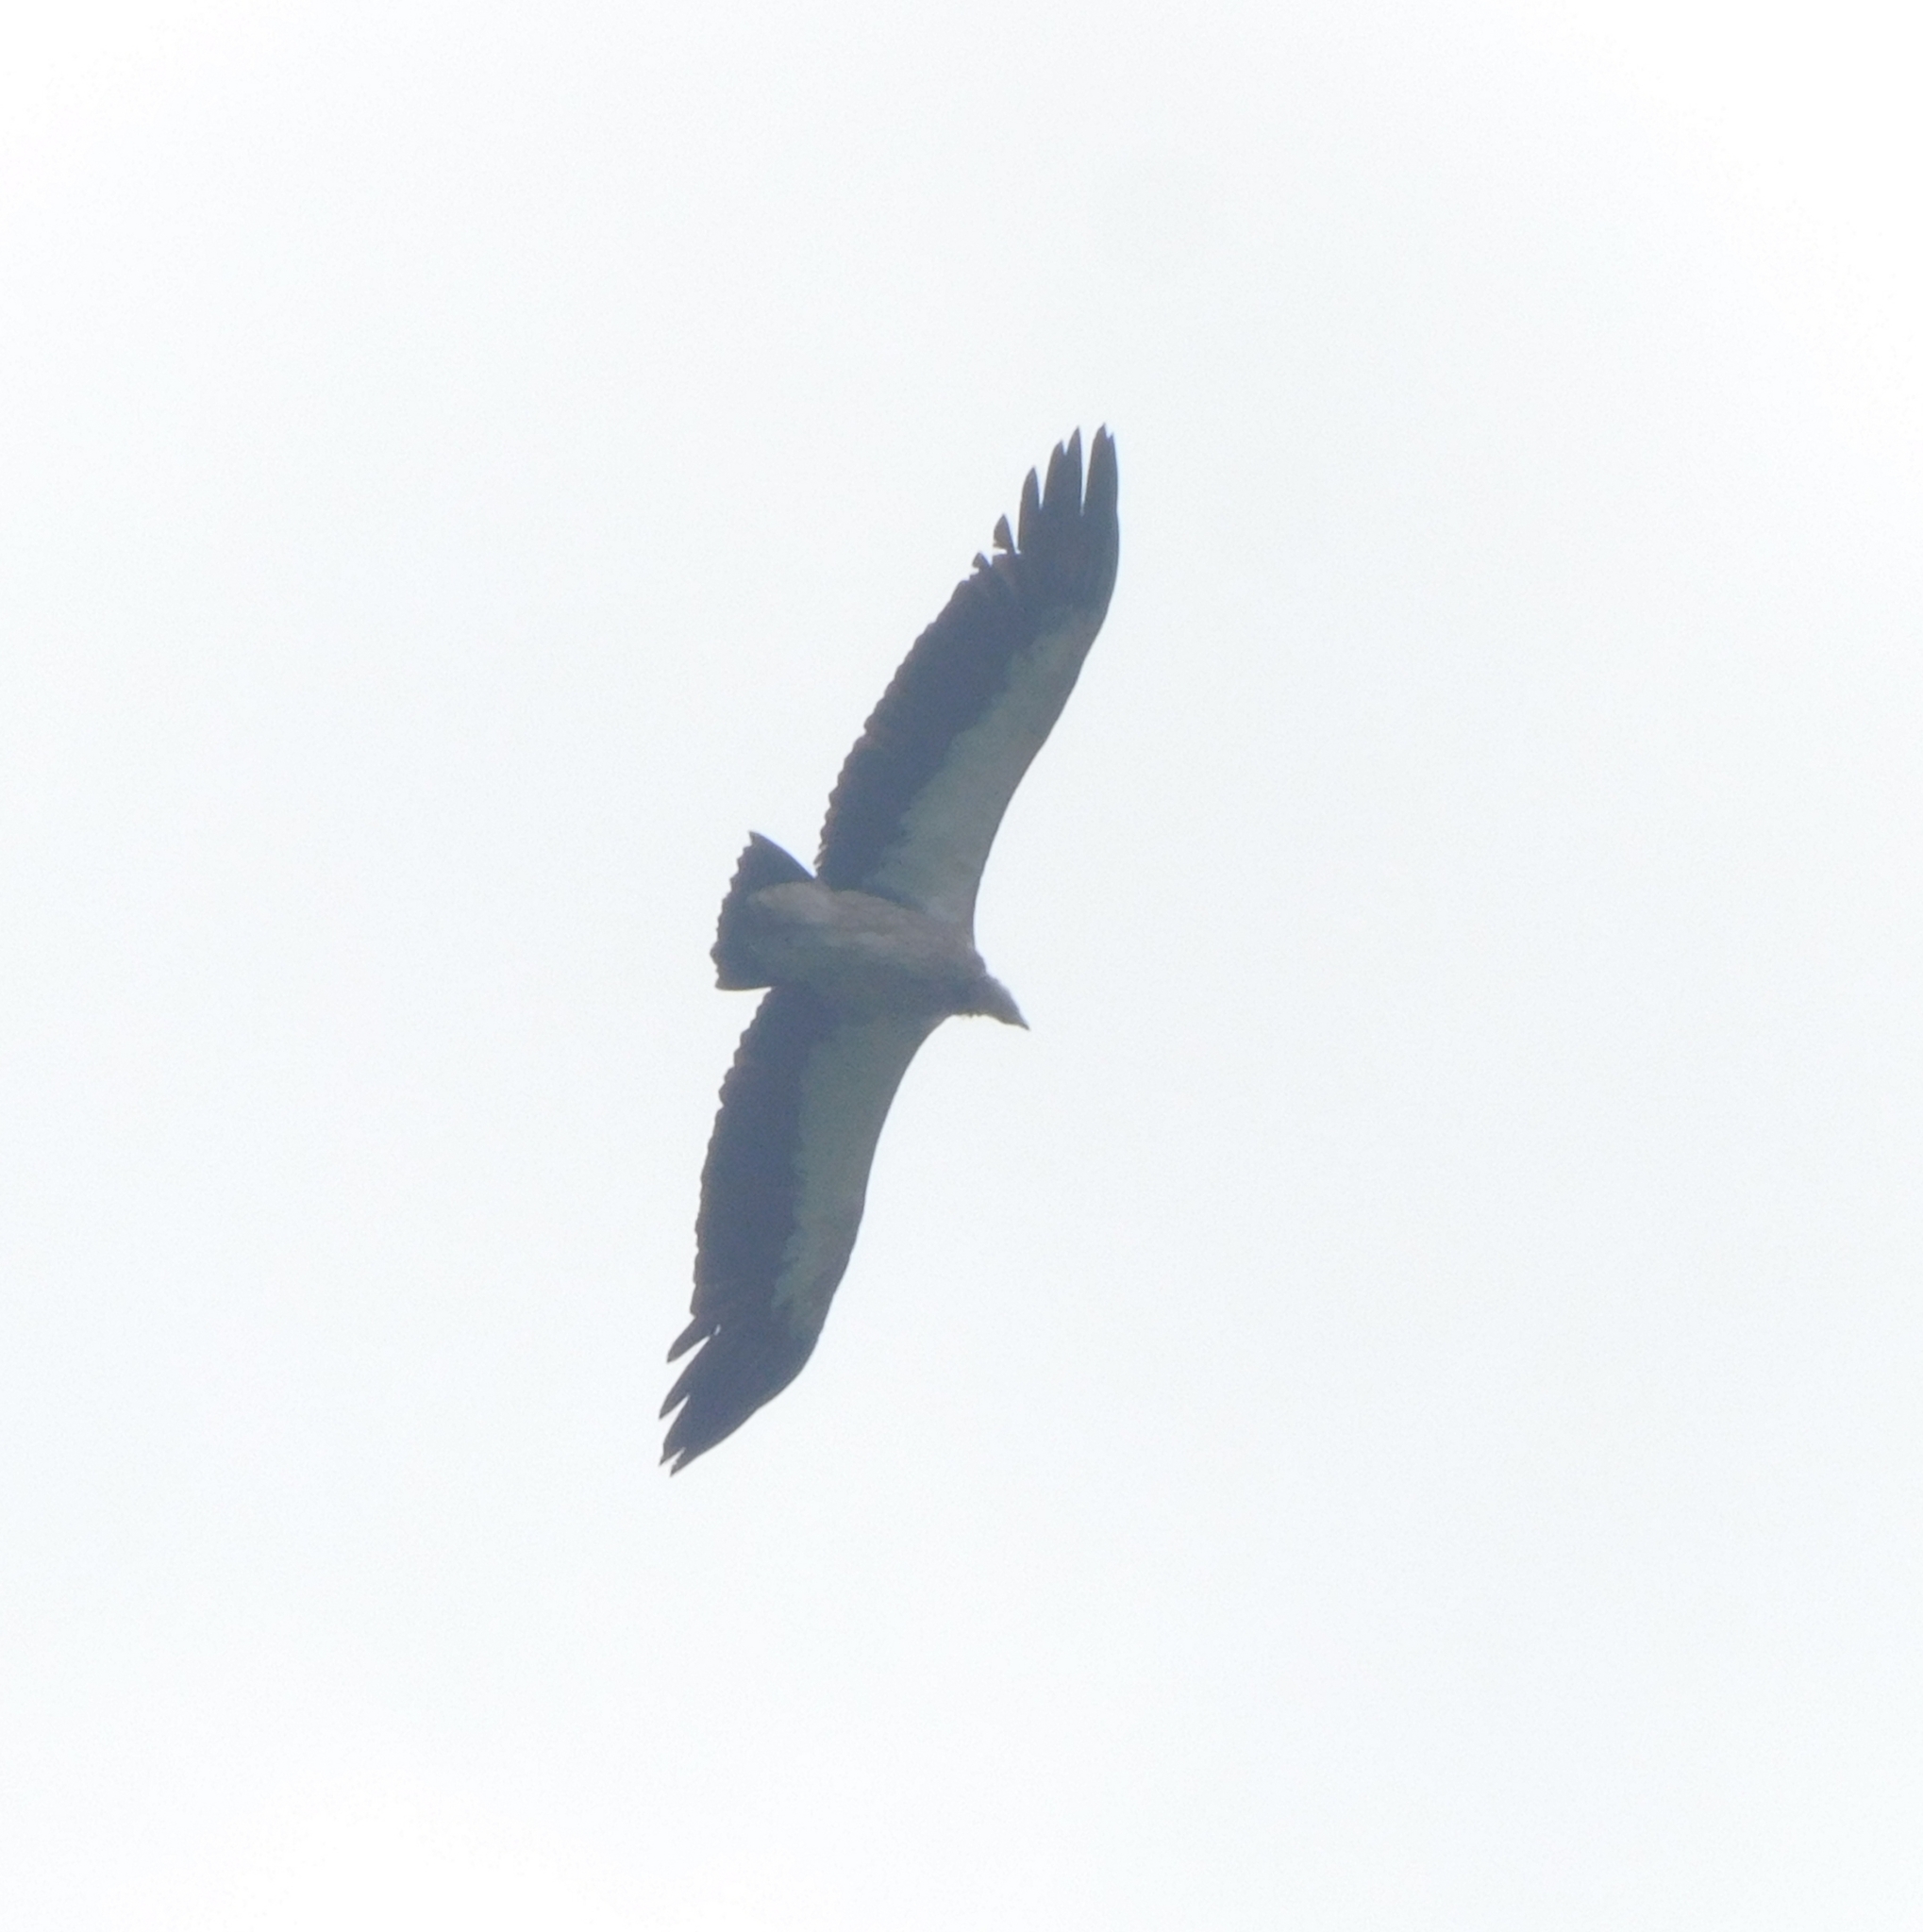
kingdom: Animalia
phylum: Chordata
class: Aves
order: Accipitriformes
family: Accipitridae
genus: Gyps
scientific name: Gyps himalayensis
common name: Himalayan griffon
